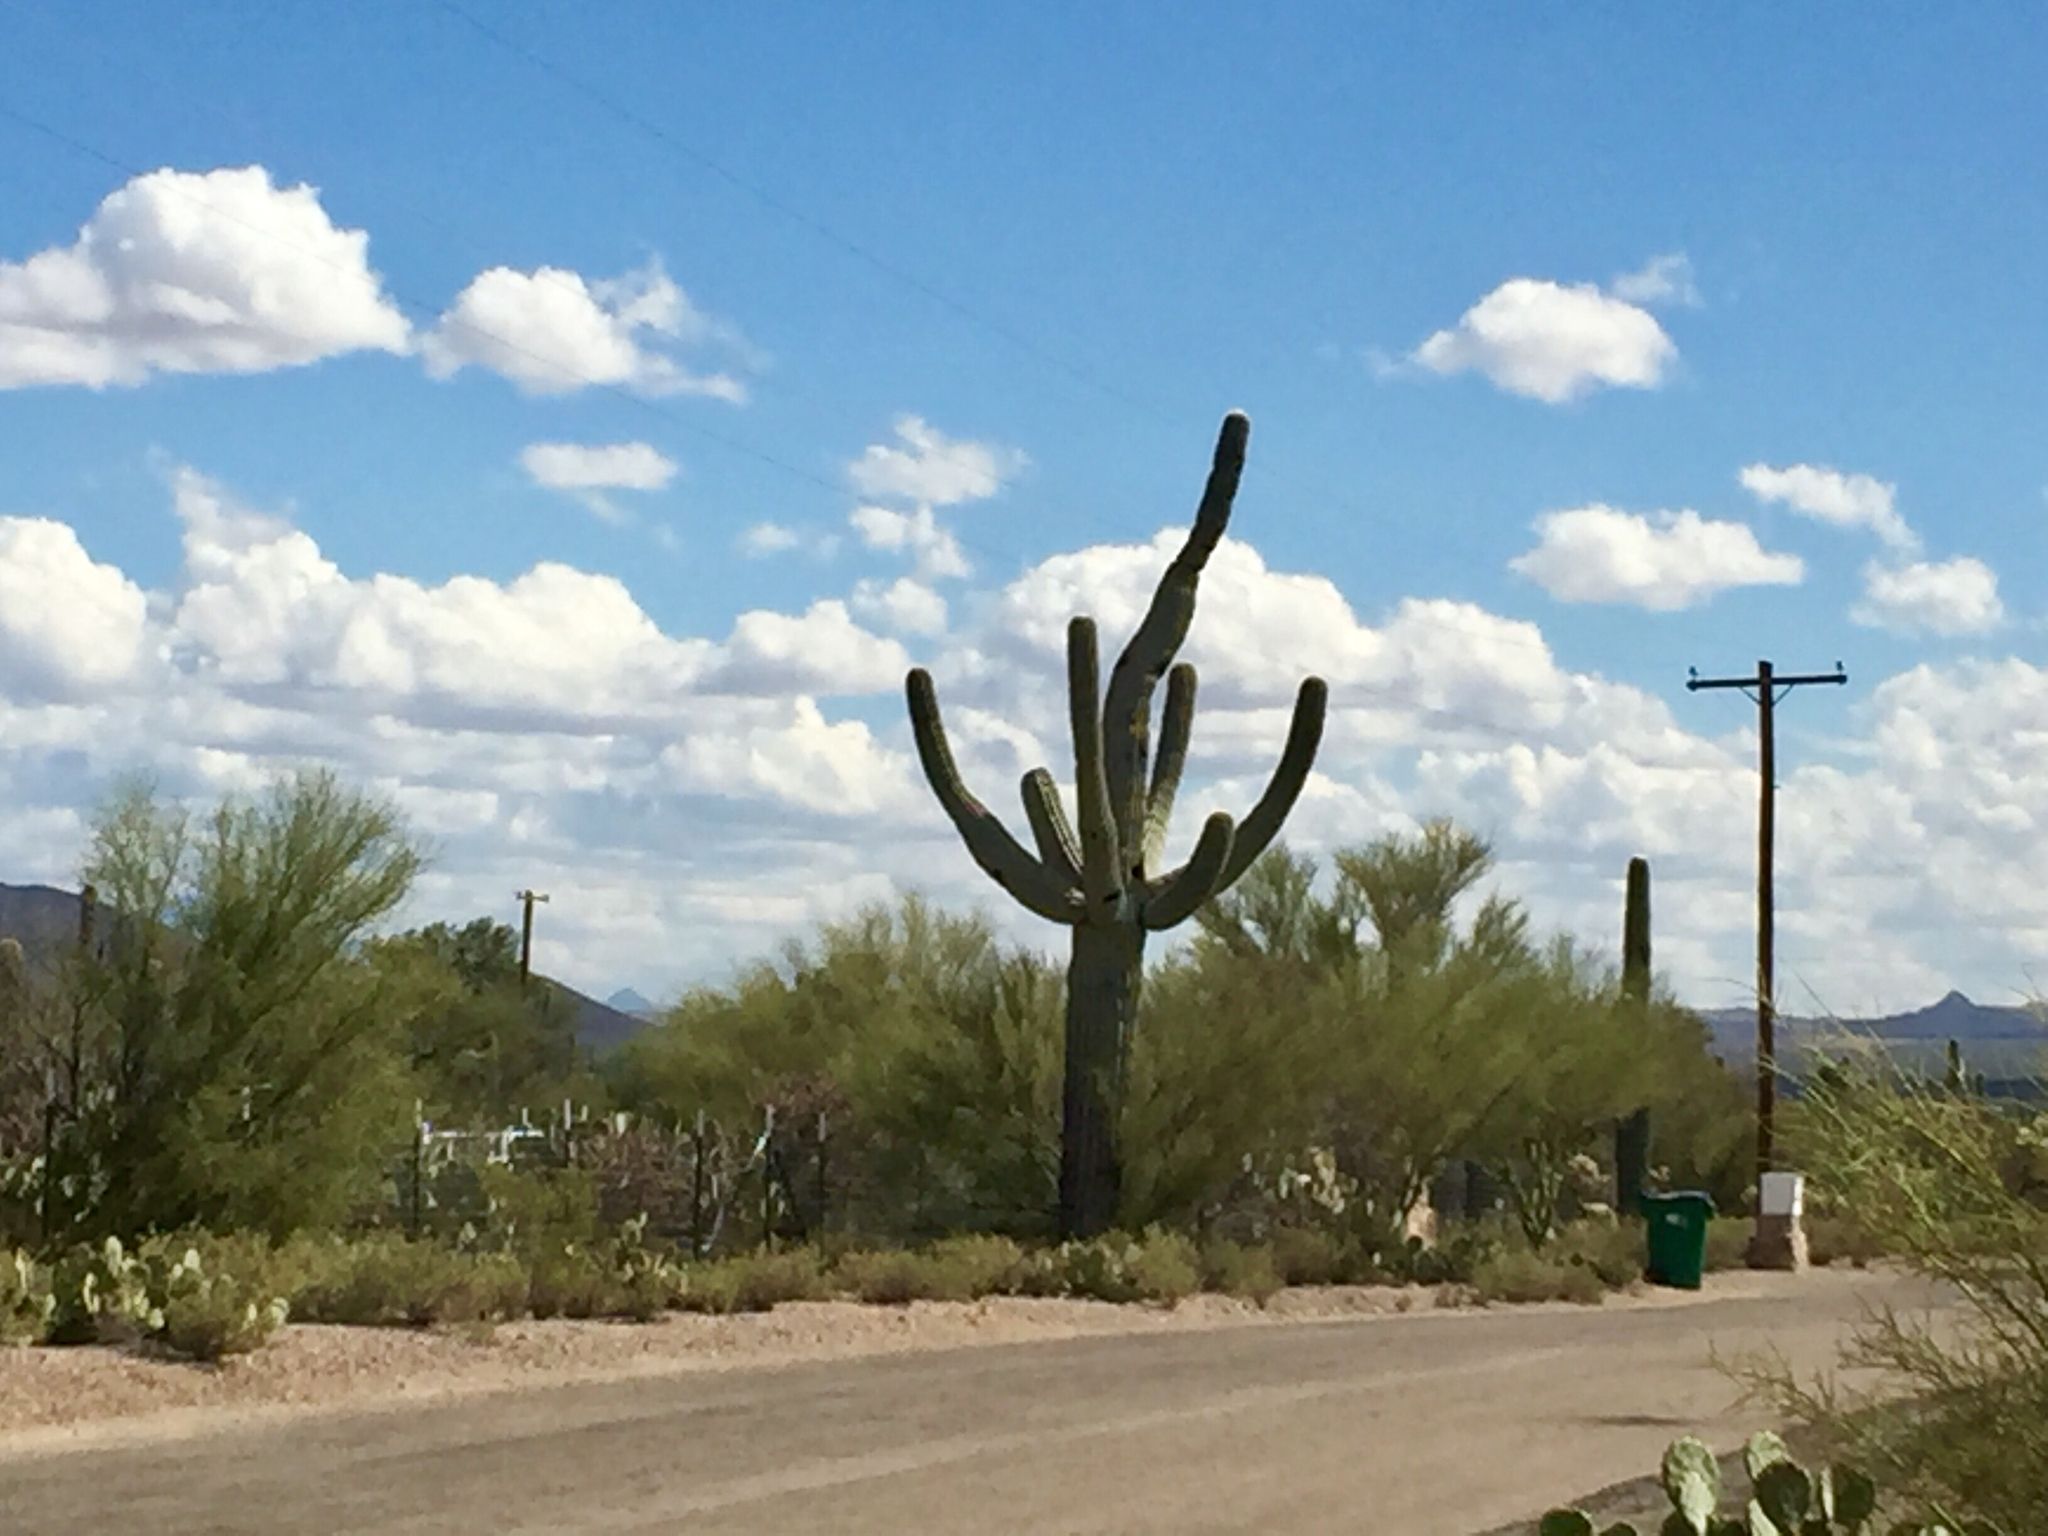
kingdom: Plantae
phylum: Tracheophyta
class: Magnoliopsida
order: Caryophyllales
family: Cactaceae
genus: Carnegiea
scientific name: Carnegiea gigantea
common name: Saguaro
